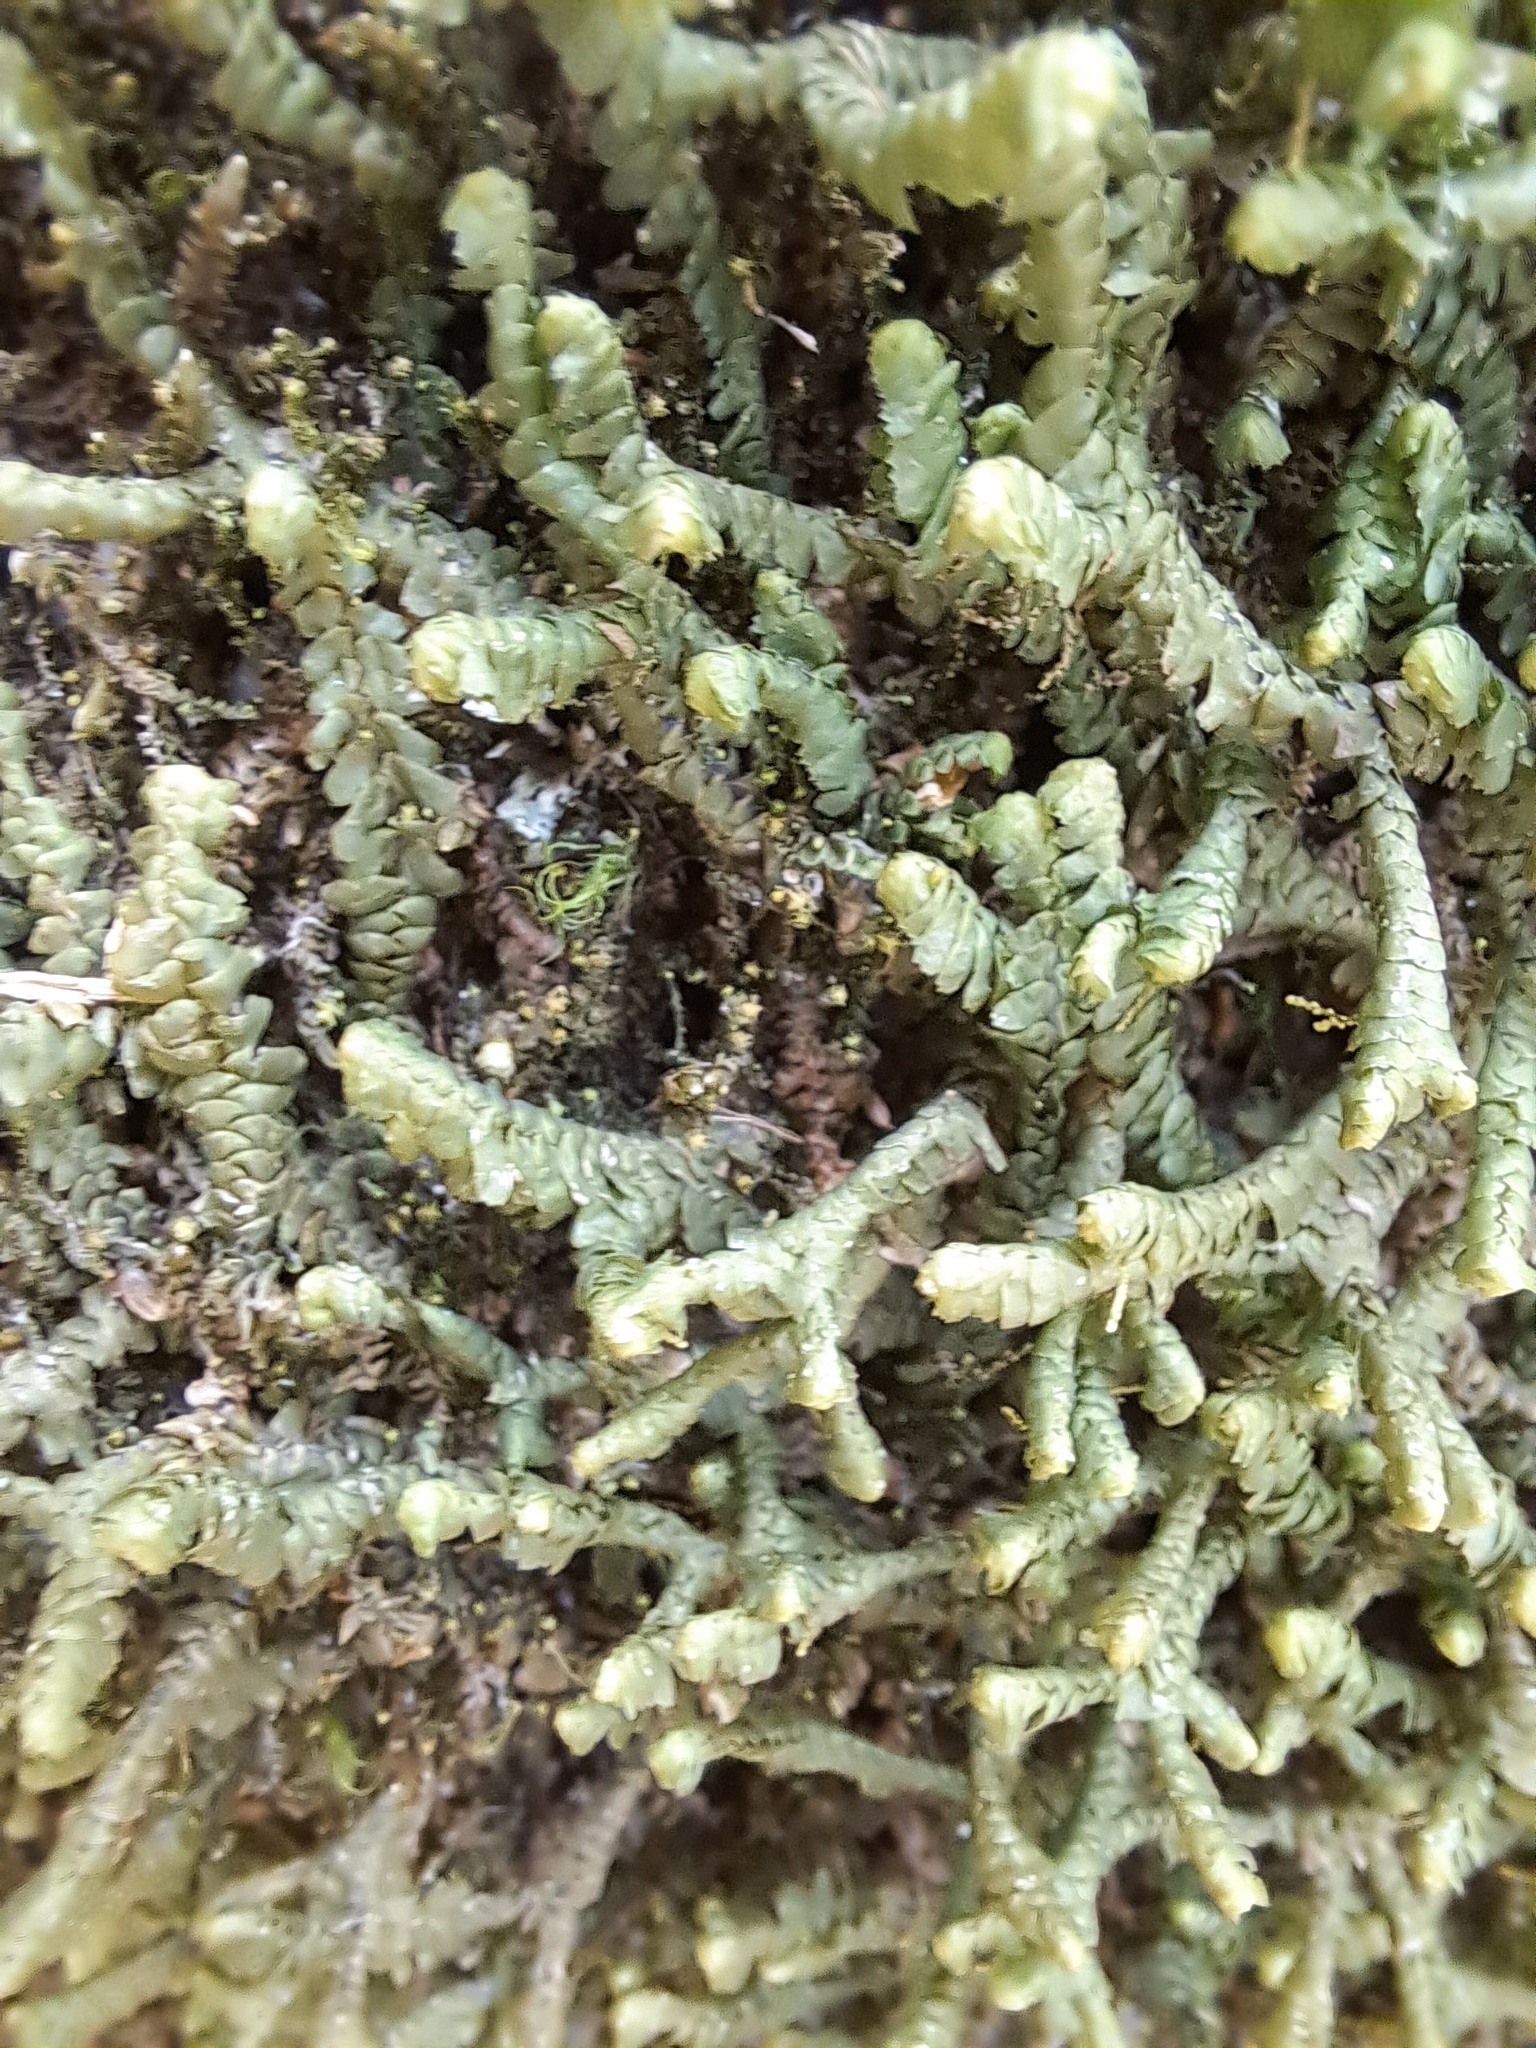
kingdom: Plantae
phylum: Marchantiophyta
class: Jungermanniopsida
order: Jungermanniales
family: Lepidoziaceae
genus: Bazzania
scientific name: Bazzania trilobata
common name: Three-lobed whipwort
